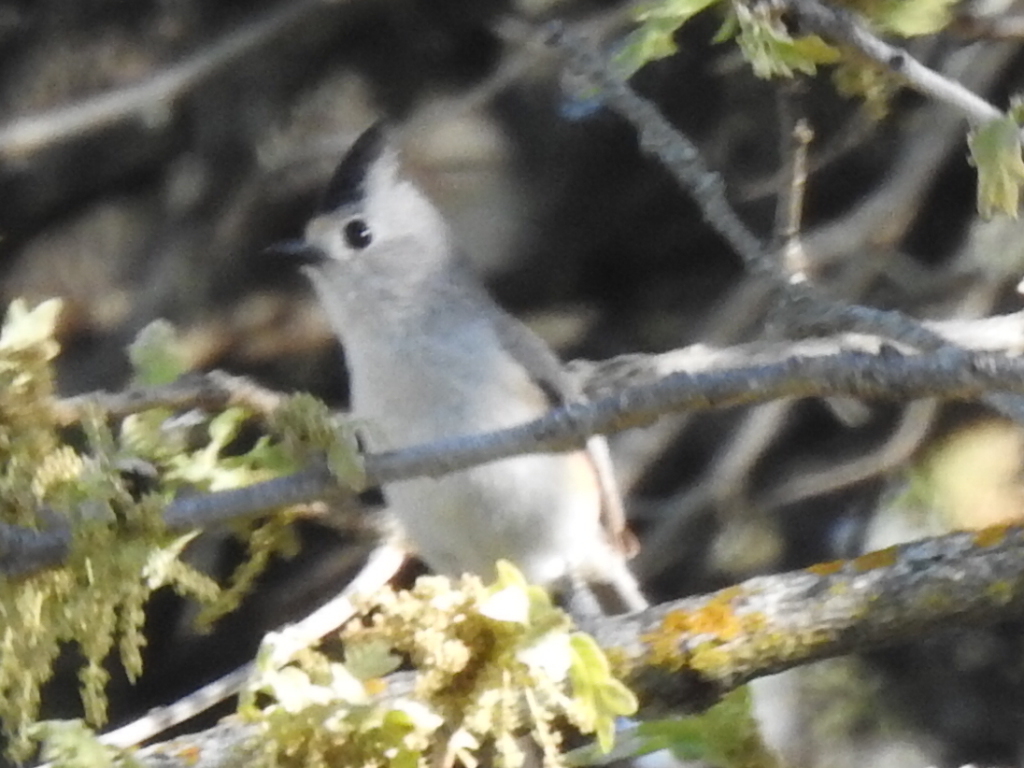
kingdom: Animalia
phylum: Chordata
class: Aves
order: Passeriformes
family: Paridae
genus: Baeolophus
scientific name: Baeolophus atricristatus
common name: Black-crested titmouse
